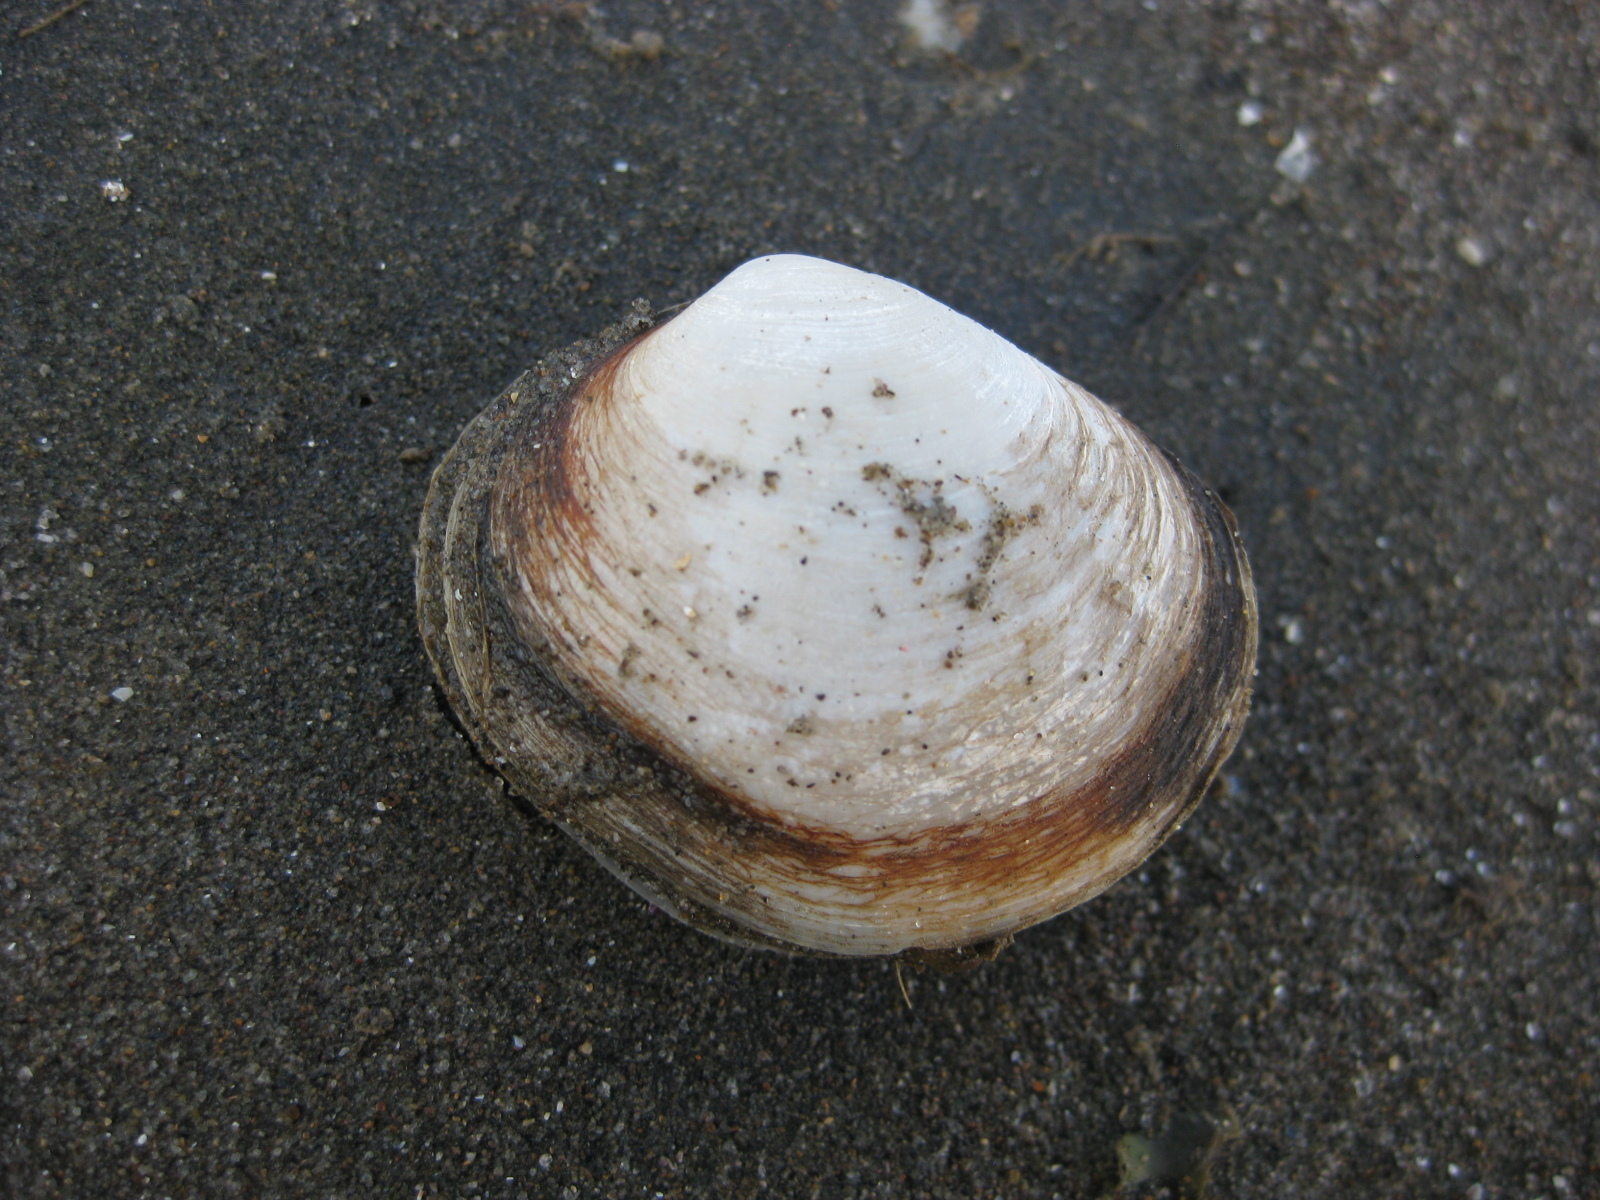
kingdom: Animalia
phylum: Mollusca
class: Bivalvia
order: Venerida
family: Mactridae
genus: Cyclomactra
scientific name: Cyclomactra tristis
